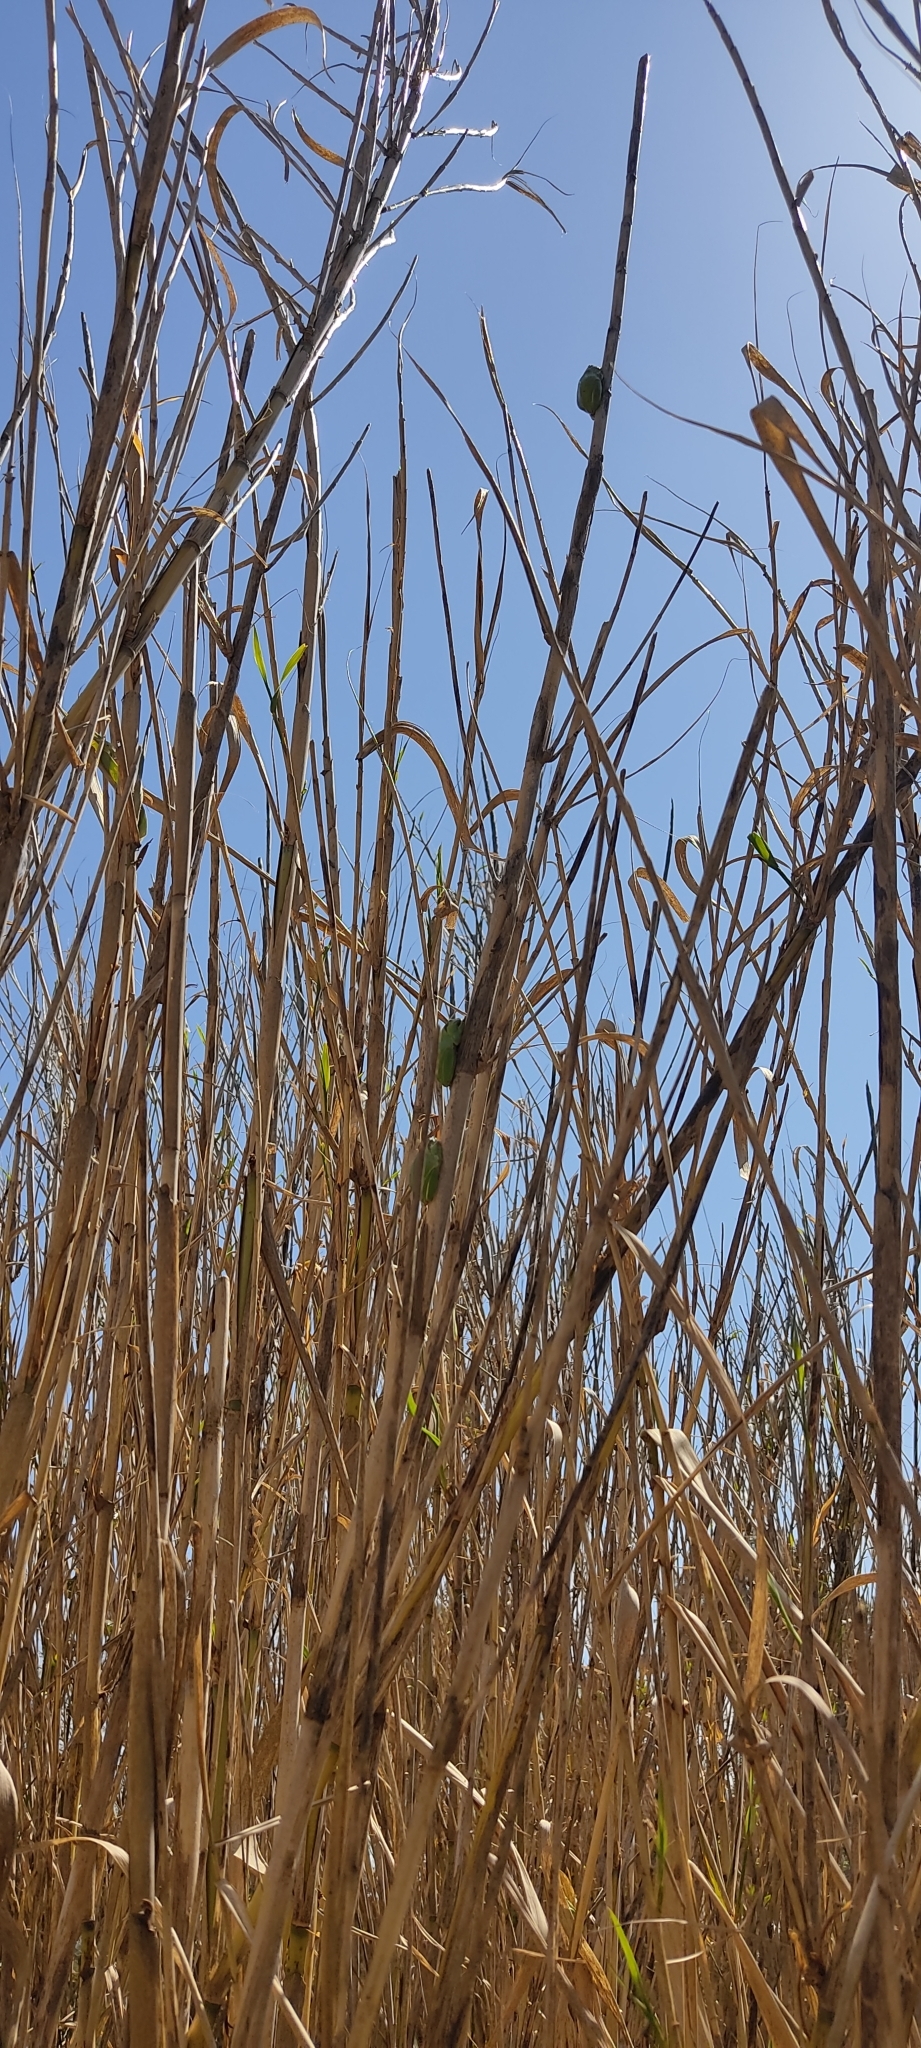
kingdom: Animalia
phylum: Chordata
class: Amphibia
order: Anura
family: Hylidae
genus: Hyla
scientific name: Hyla meridionalis
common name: Stripeless tree frog
